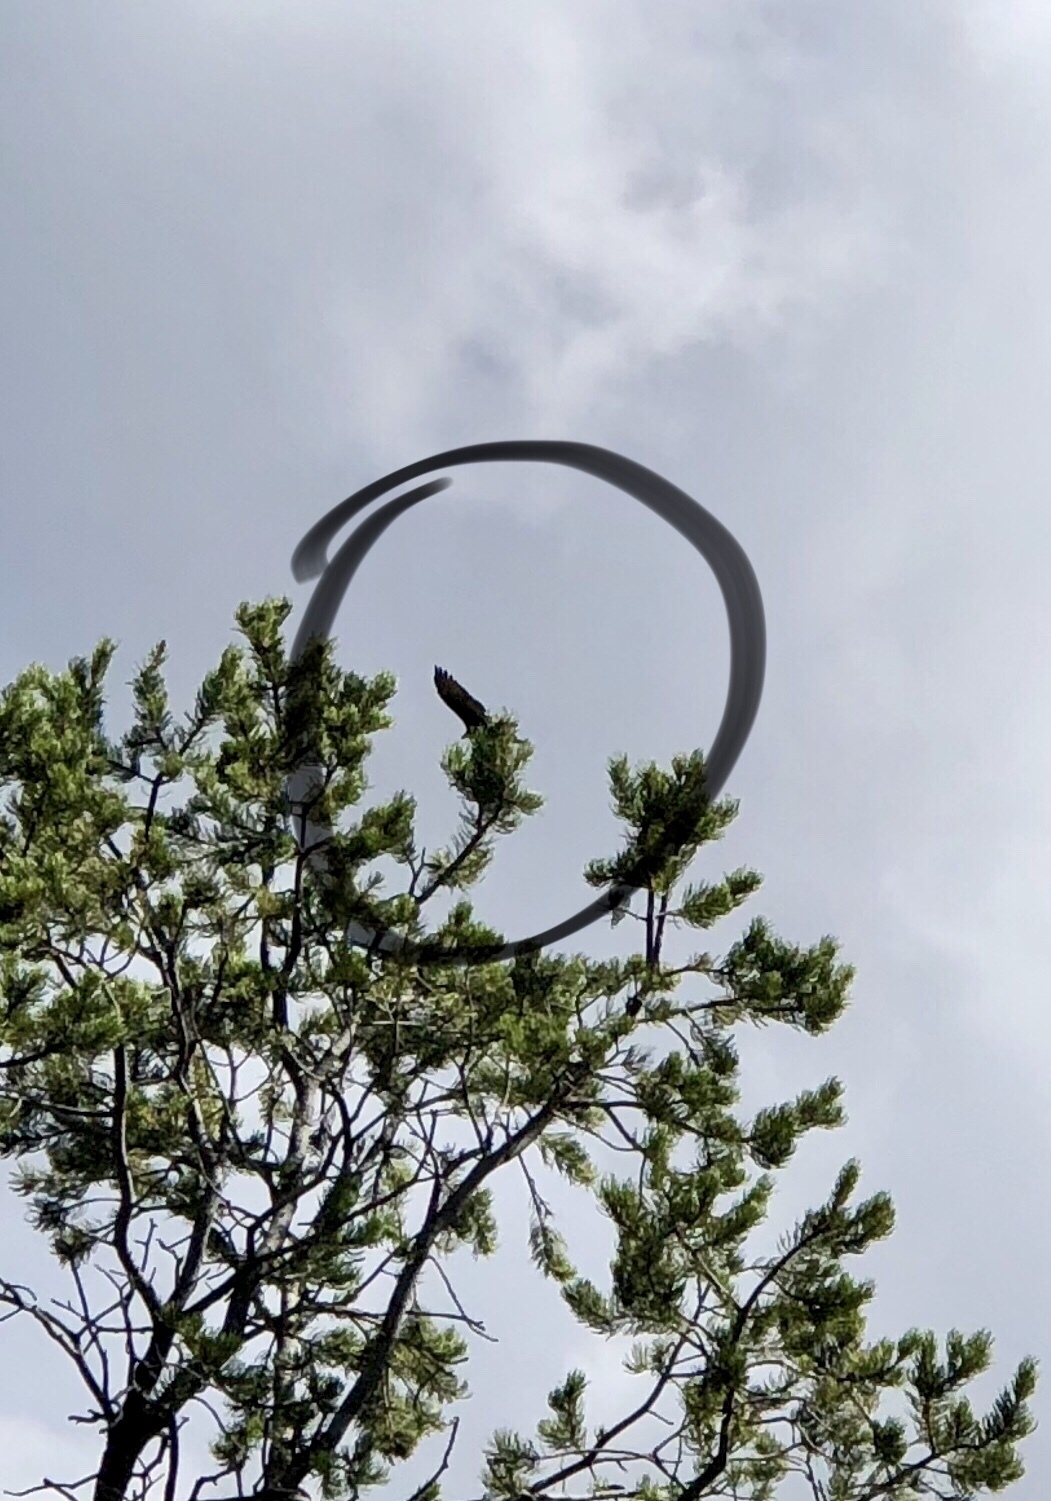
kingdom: Animalia
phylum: Chordata
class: Aves
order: Accipitriformes
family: Cathartidae
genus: Cathartes
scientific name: Cathartes aura
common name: Turkey vulture
